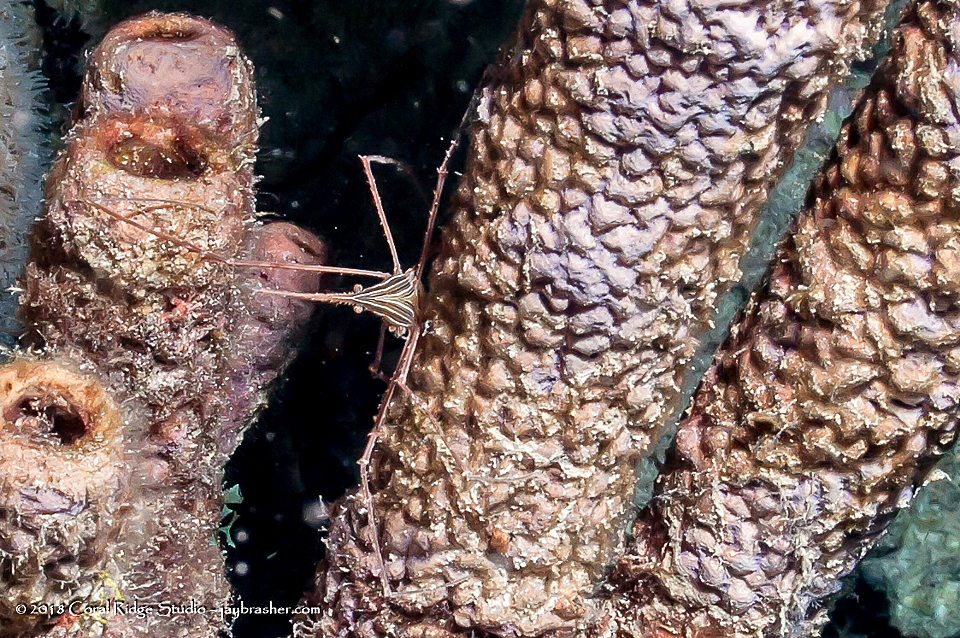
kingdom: Animalia
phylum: Arthropoda
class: Malacostraca
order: Decapoda
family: Inachoididae
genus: Stenorhynchus
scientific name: Stenorhynchus seticornis
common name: Arrow crab
